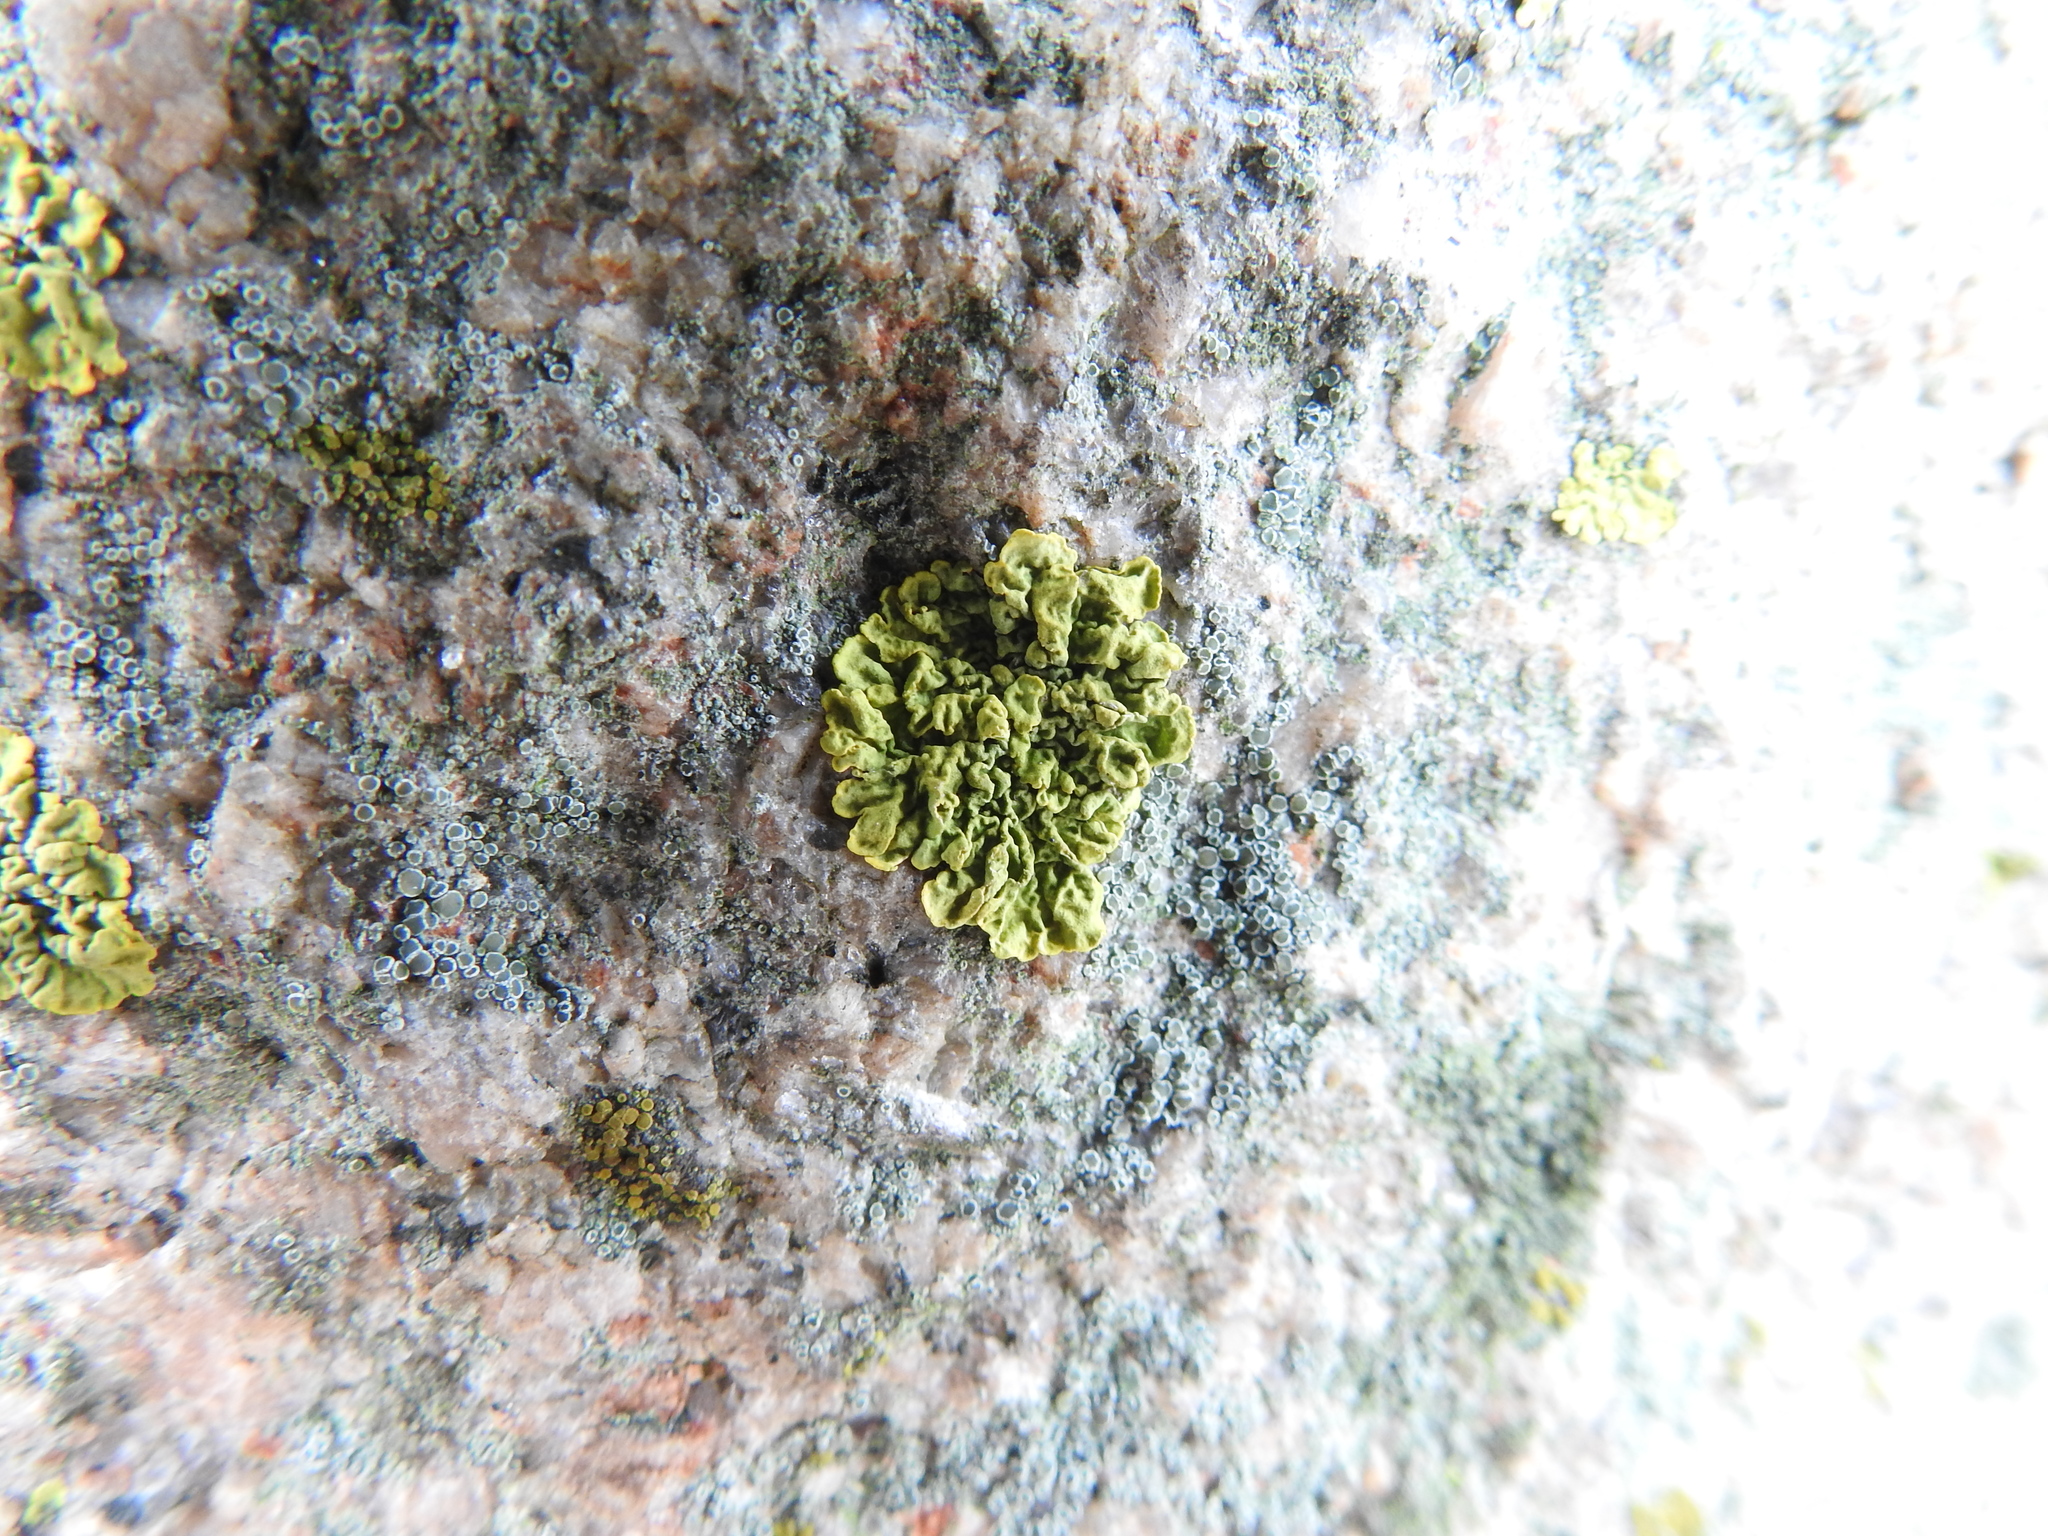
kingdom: Fungi
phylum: Ascomycota
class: Lecanoromycetes
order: Teloschistales
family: Teloschistaceae
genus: Xanthoria
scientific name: Xanthoria parietina
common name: Common orange lichen
